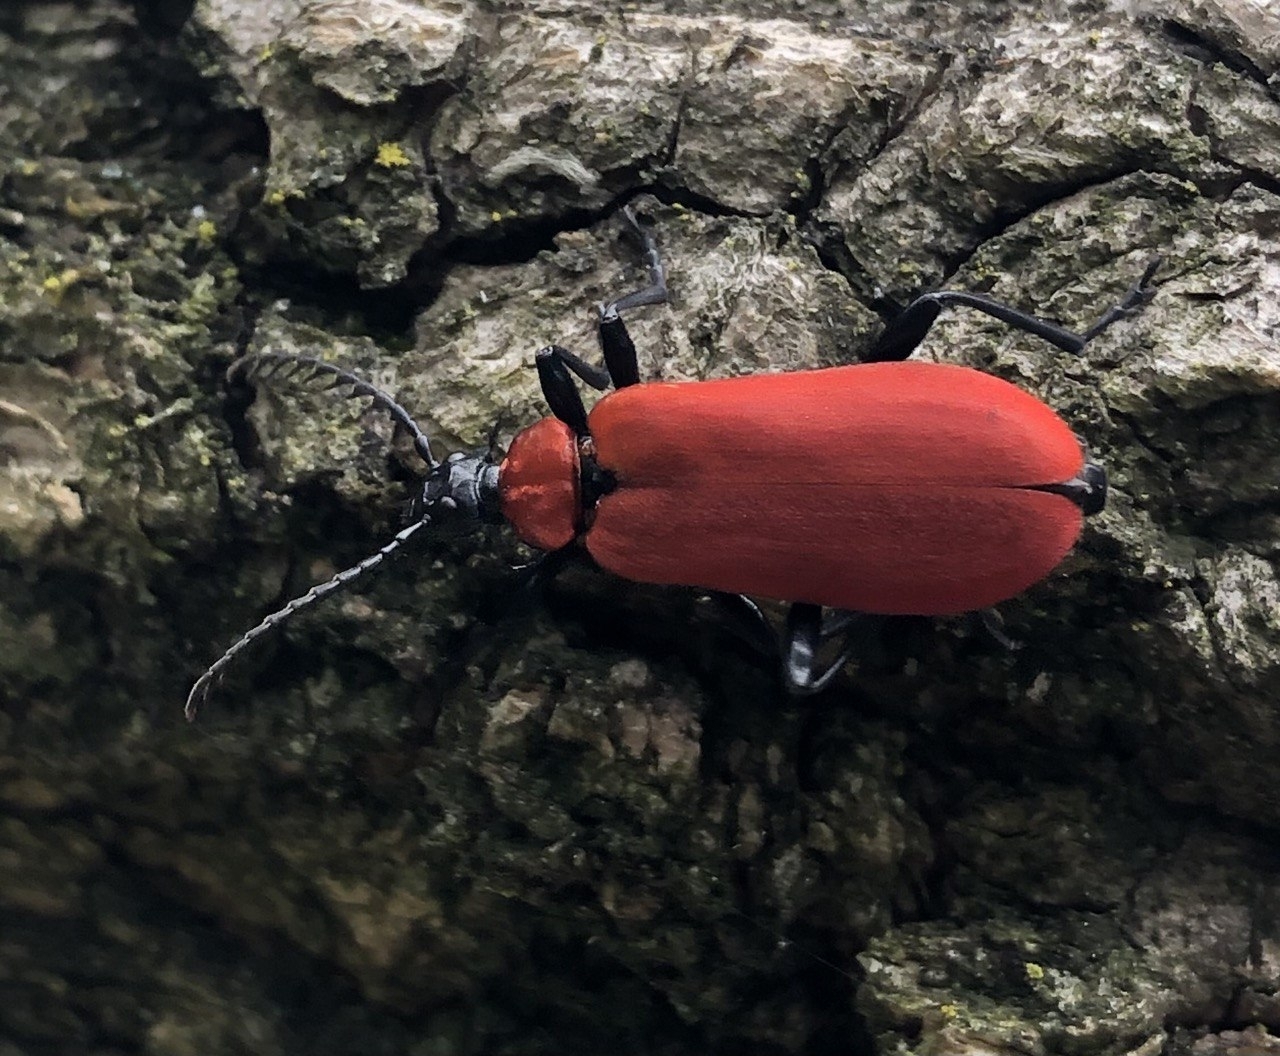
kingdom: Animalia
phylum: Arthropoda
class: Insecta
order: Coleoptera
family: Pyrochroidae
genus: Pyrochroa
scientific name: Pyrochroa coccinea
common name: Black-headed cardinal beetle
